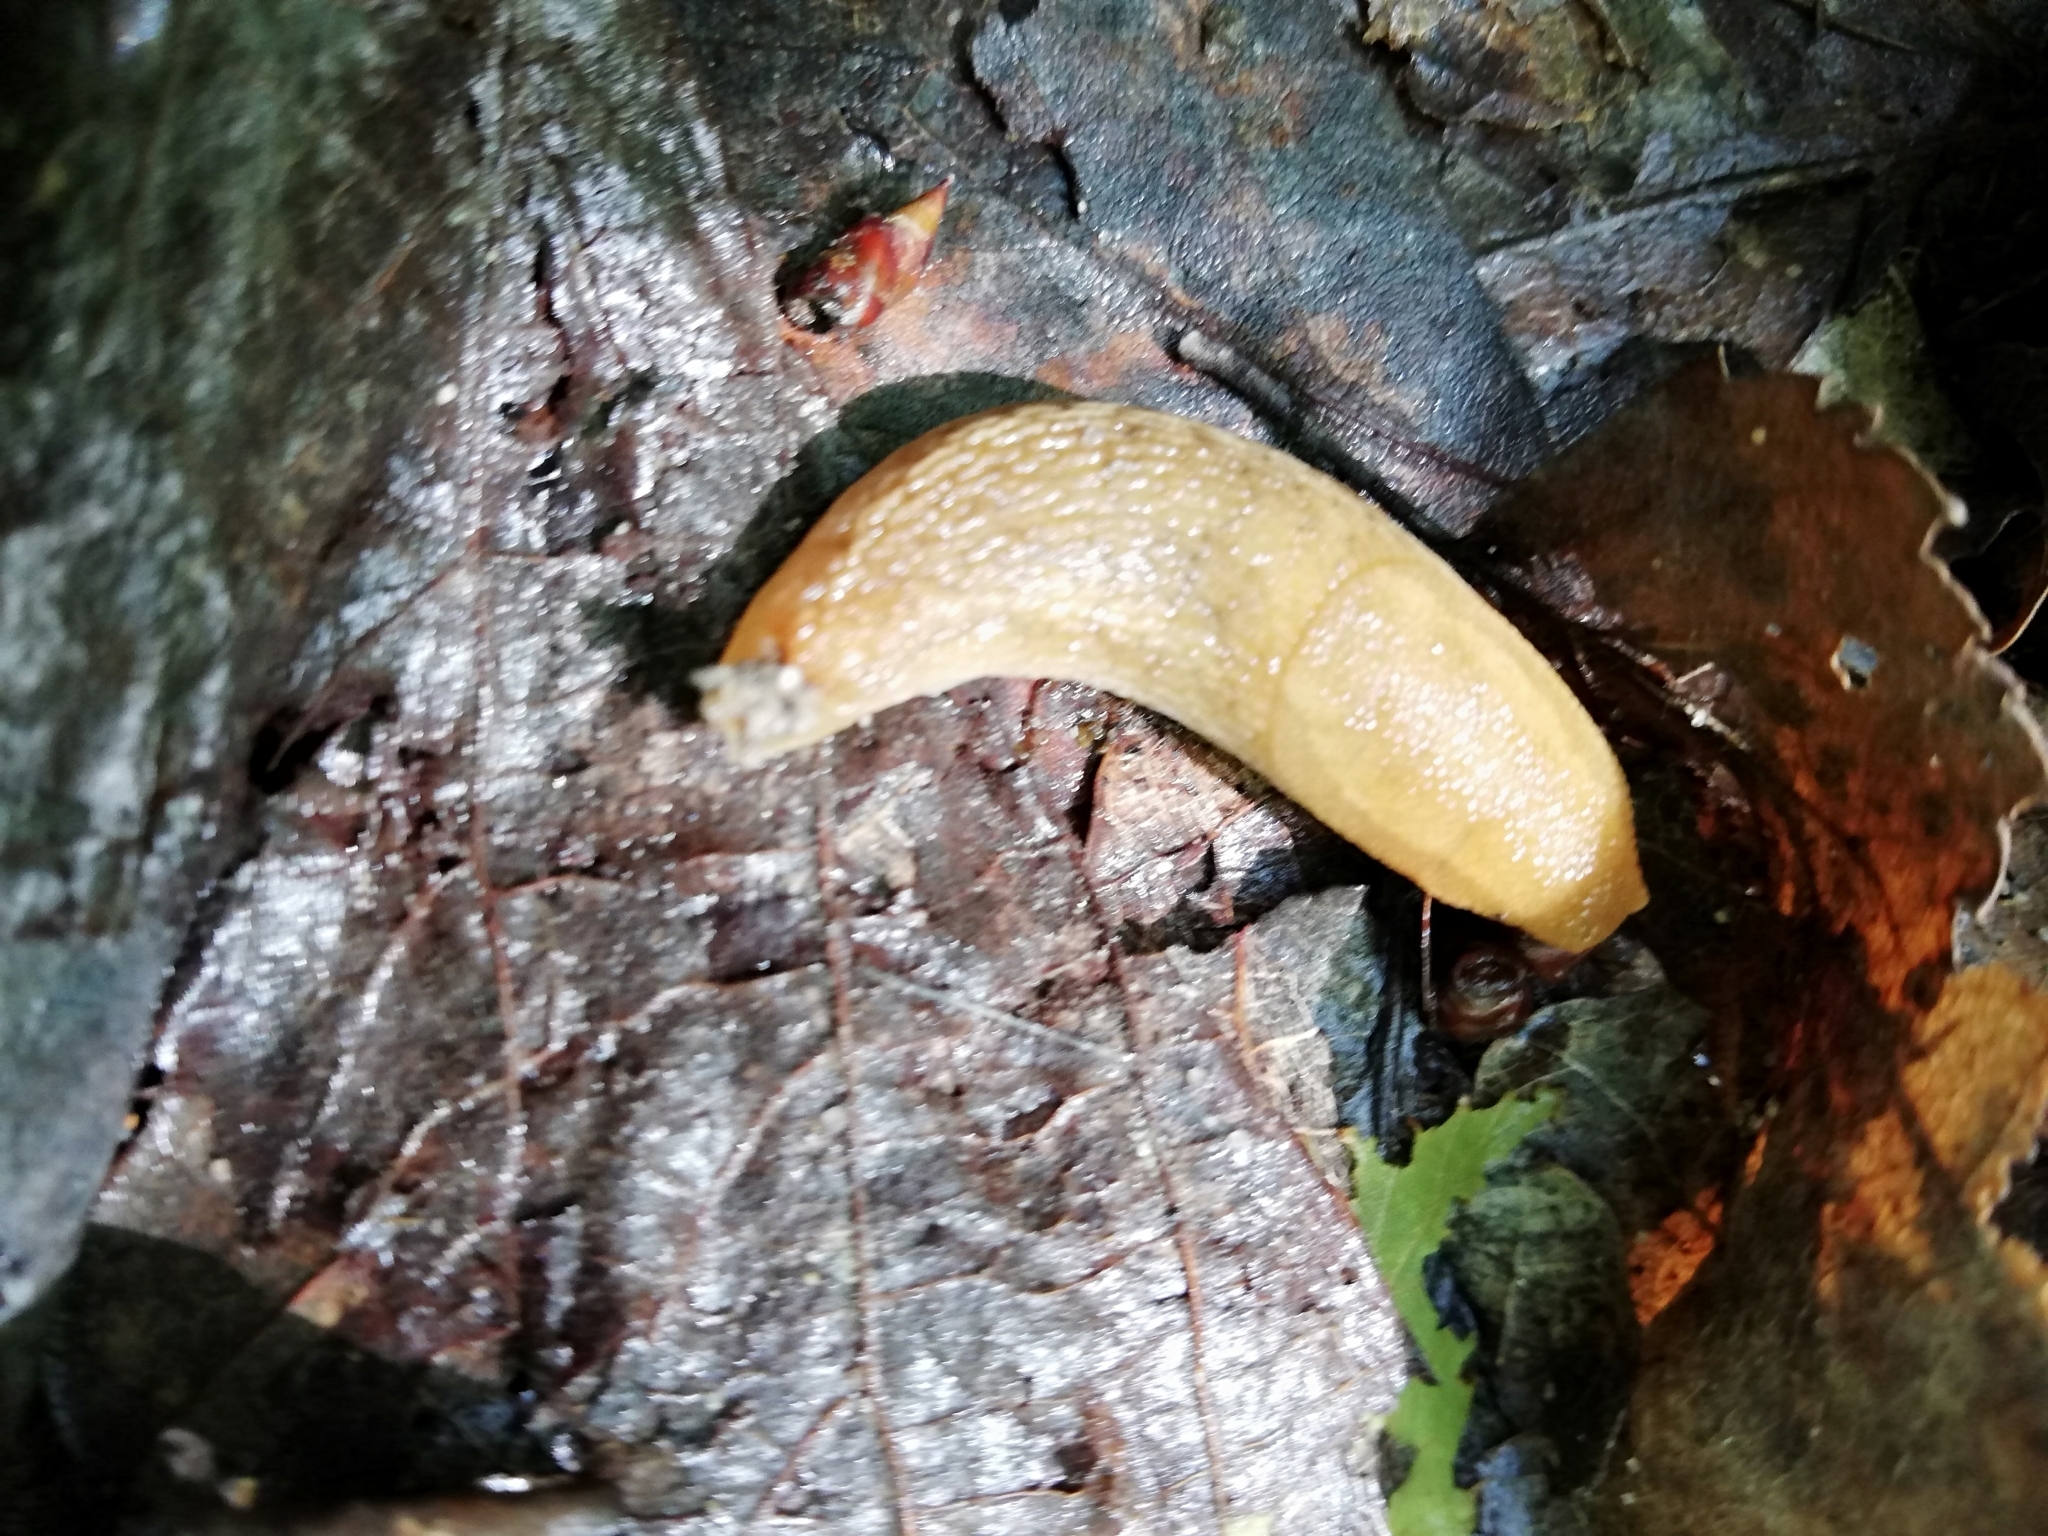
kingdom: Animalia
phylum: Mollusca
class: Gastropoda
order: Stylommatophora
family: Arionidae
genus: Arion
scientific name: Arion fuscus
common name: Northern dusky slug
